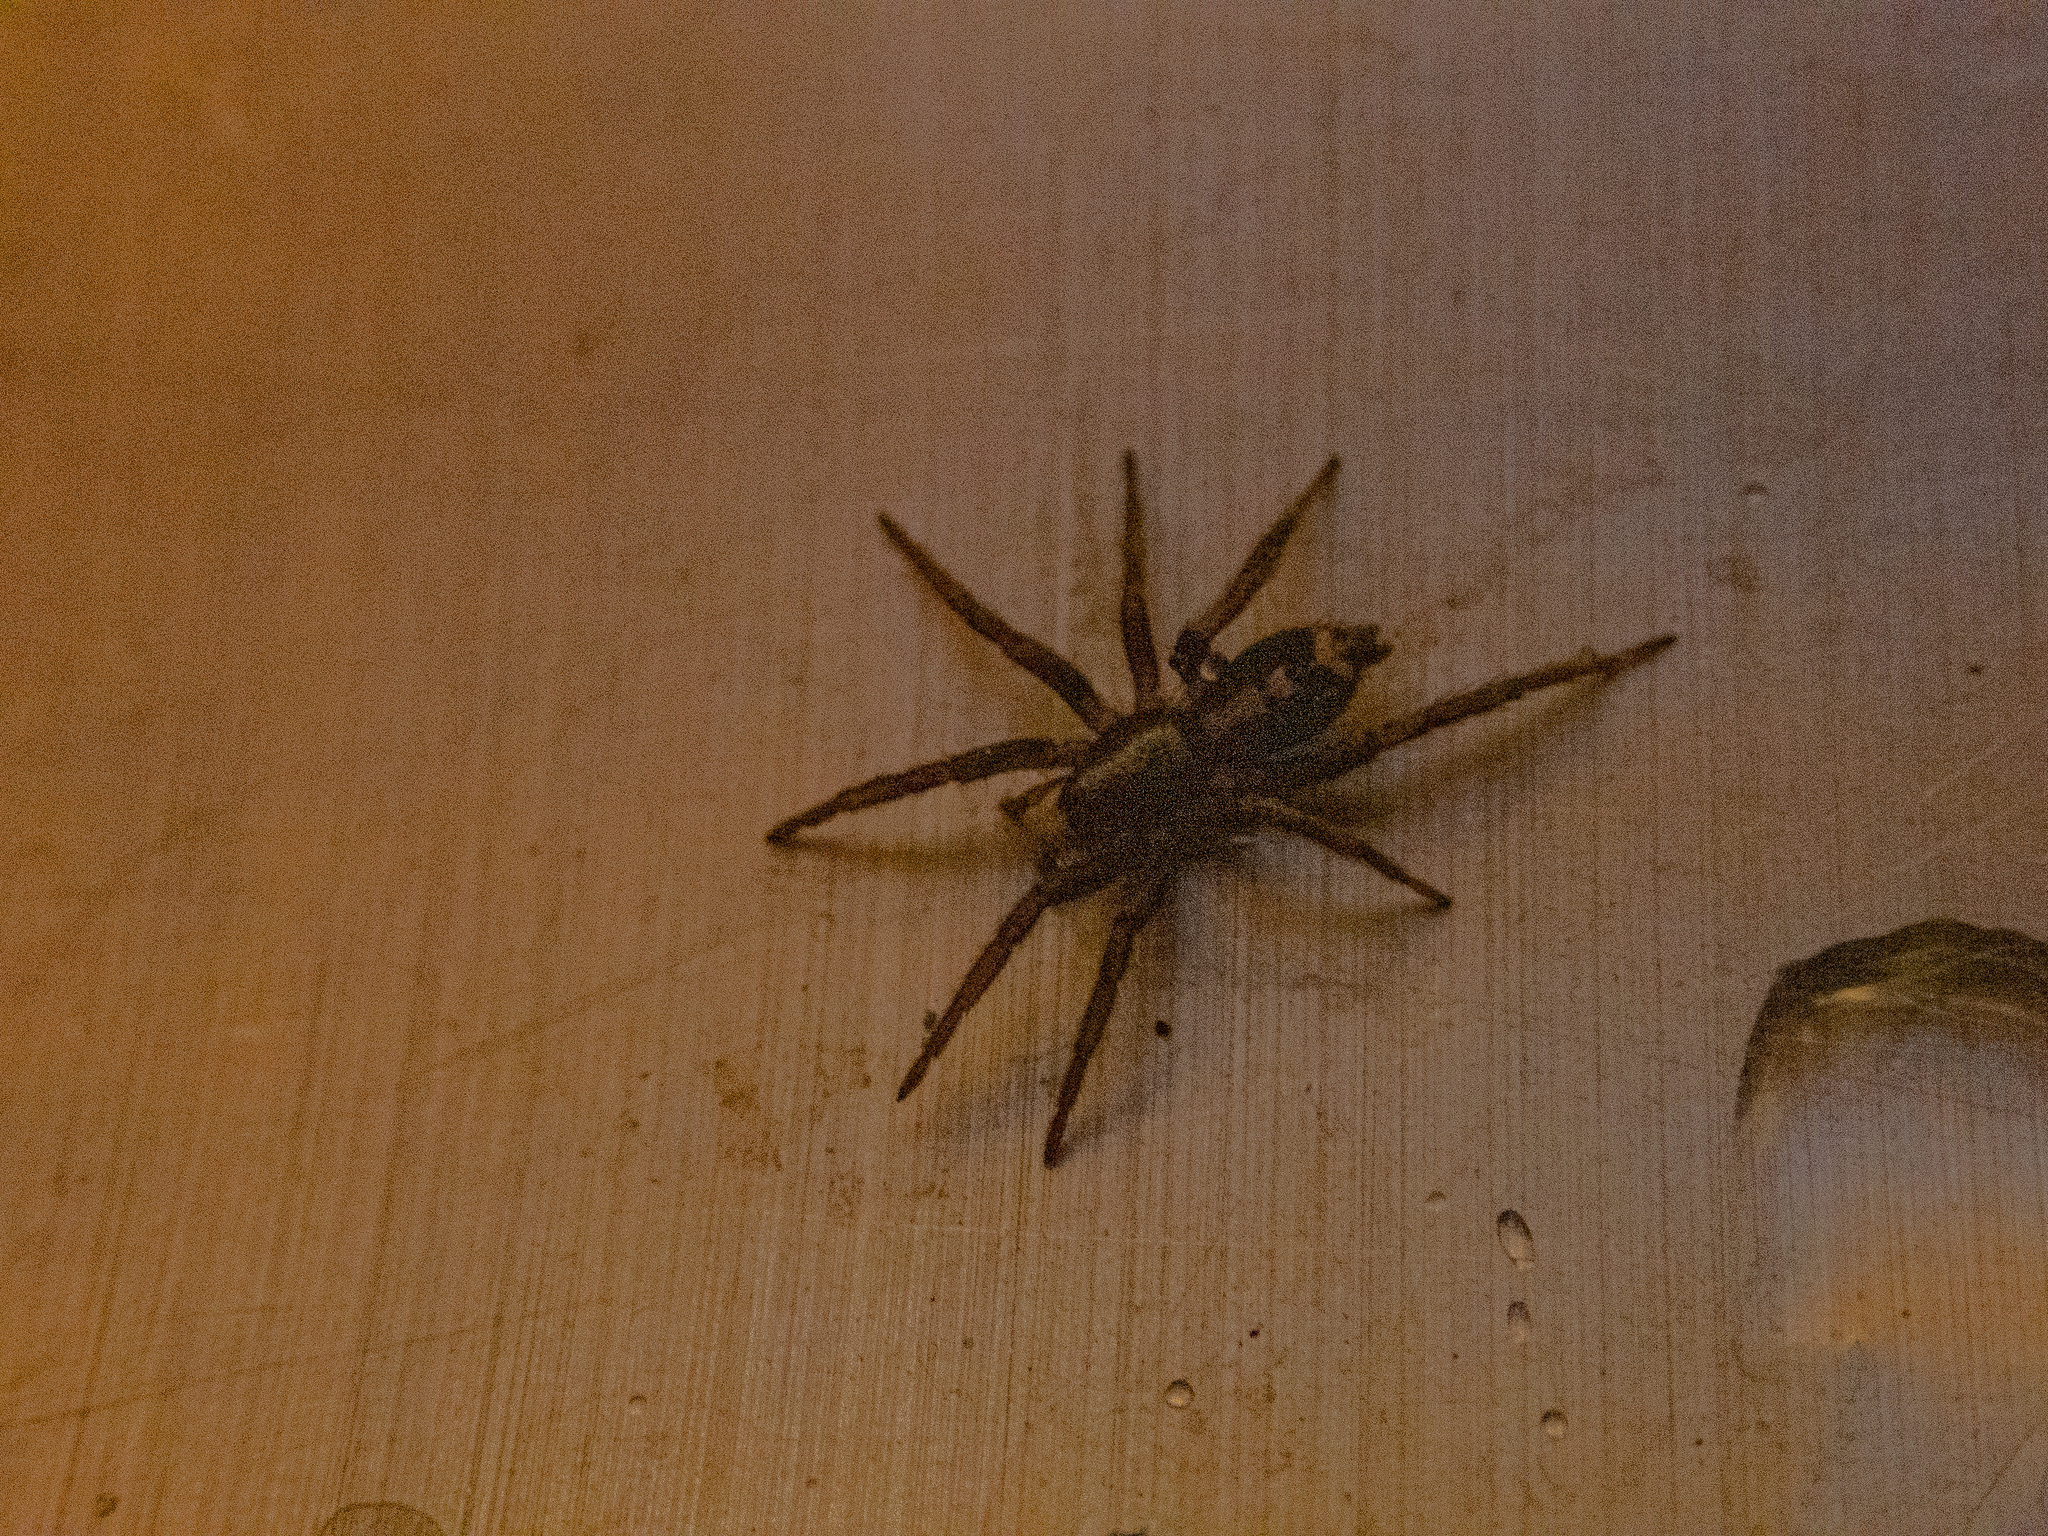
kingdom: Animalia
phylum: Arthropoda
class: Arachnida
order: Araneae
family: Gnaphosidae
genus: Herpyllus
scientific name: Herpyllus ecclesiasticus
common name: Eastern parson spider
